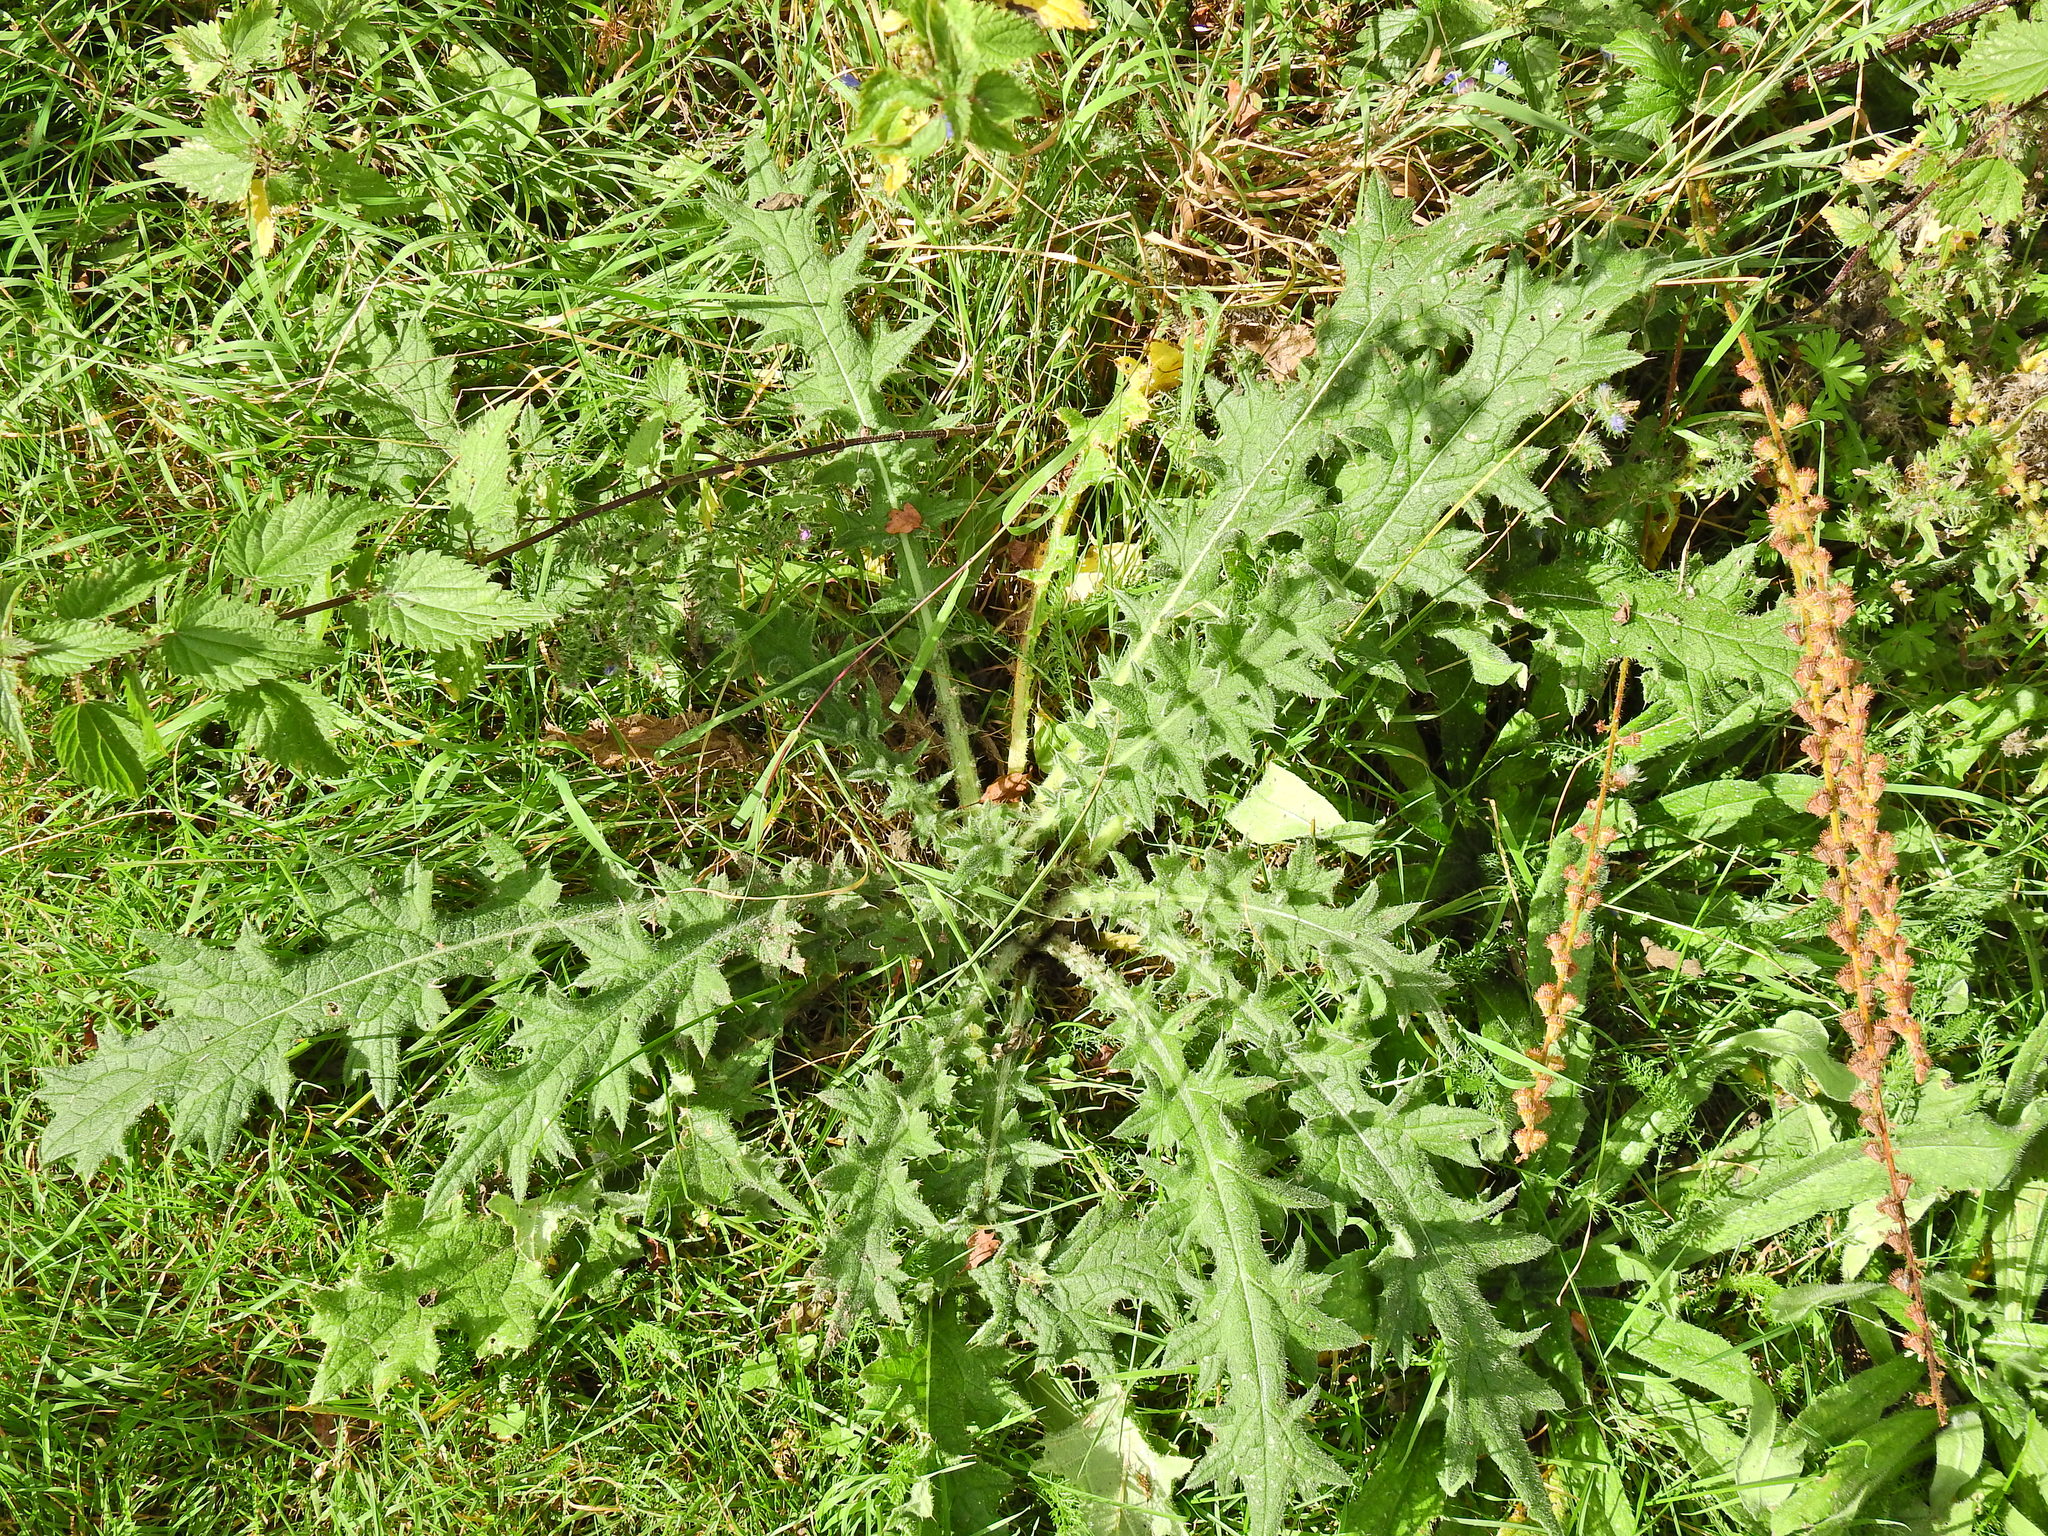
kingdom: Plantae
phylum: Tracheophyta
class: Magnoliopsida
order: Asterales
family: Asteraceae
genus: Cirsium
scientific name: Cirsium vulgare
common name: Bull thistle
